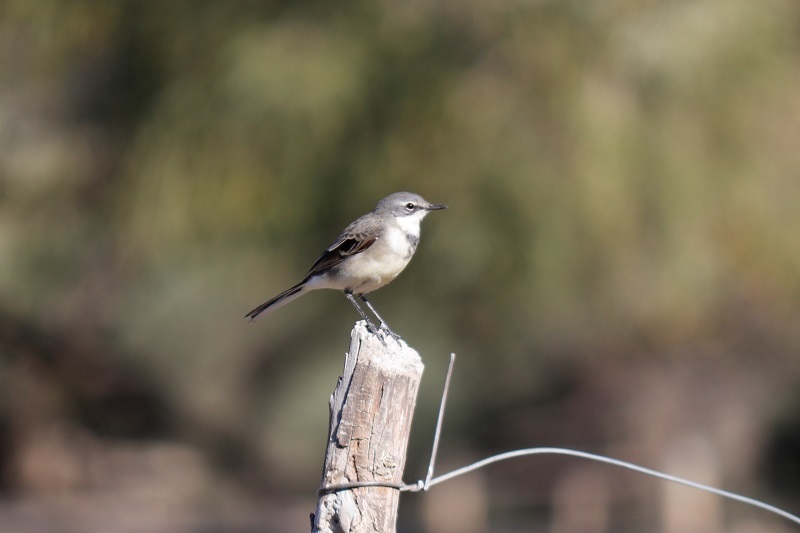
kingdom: Animalia
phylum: Chordata
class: Aves
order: Passeriformes
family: Motacillidae
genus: Motacilla
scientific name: Motacilla capensis
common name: Cape wagtail
